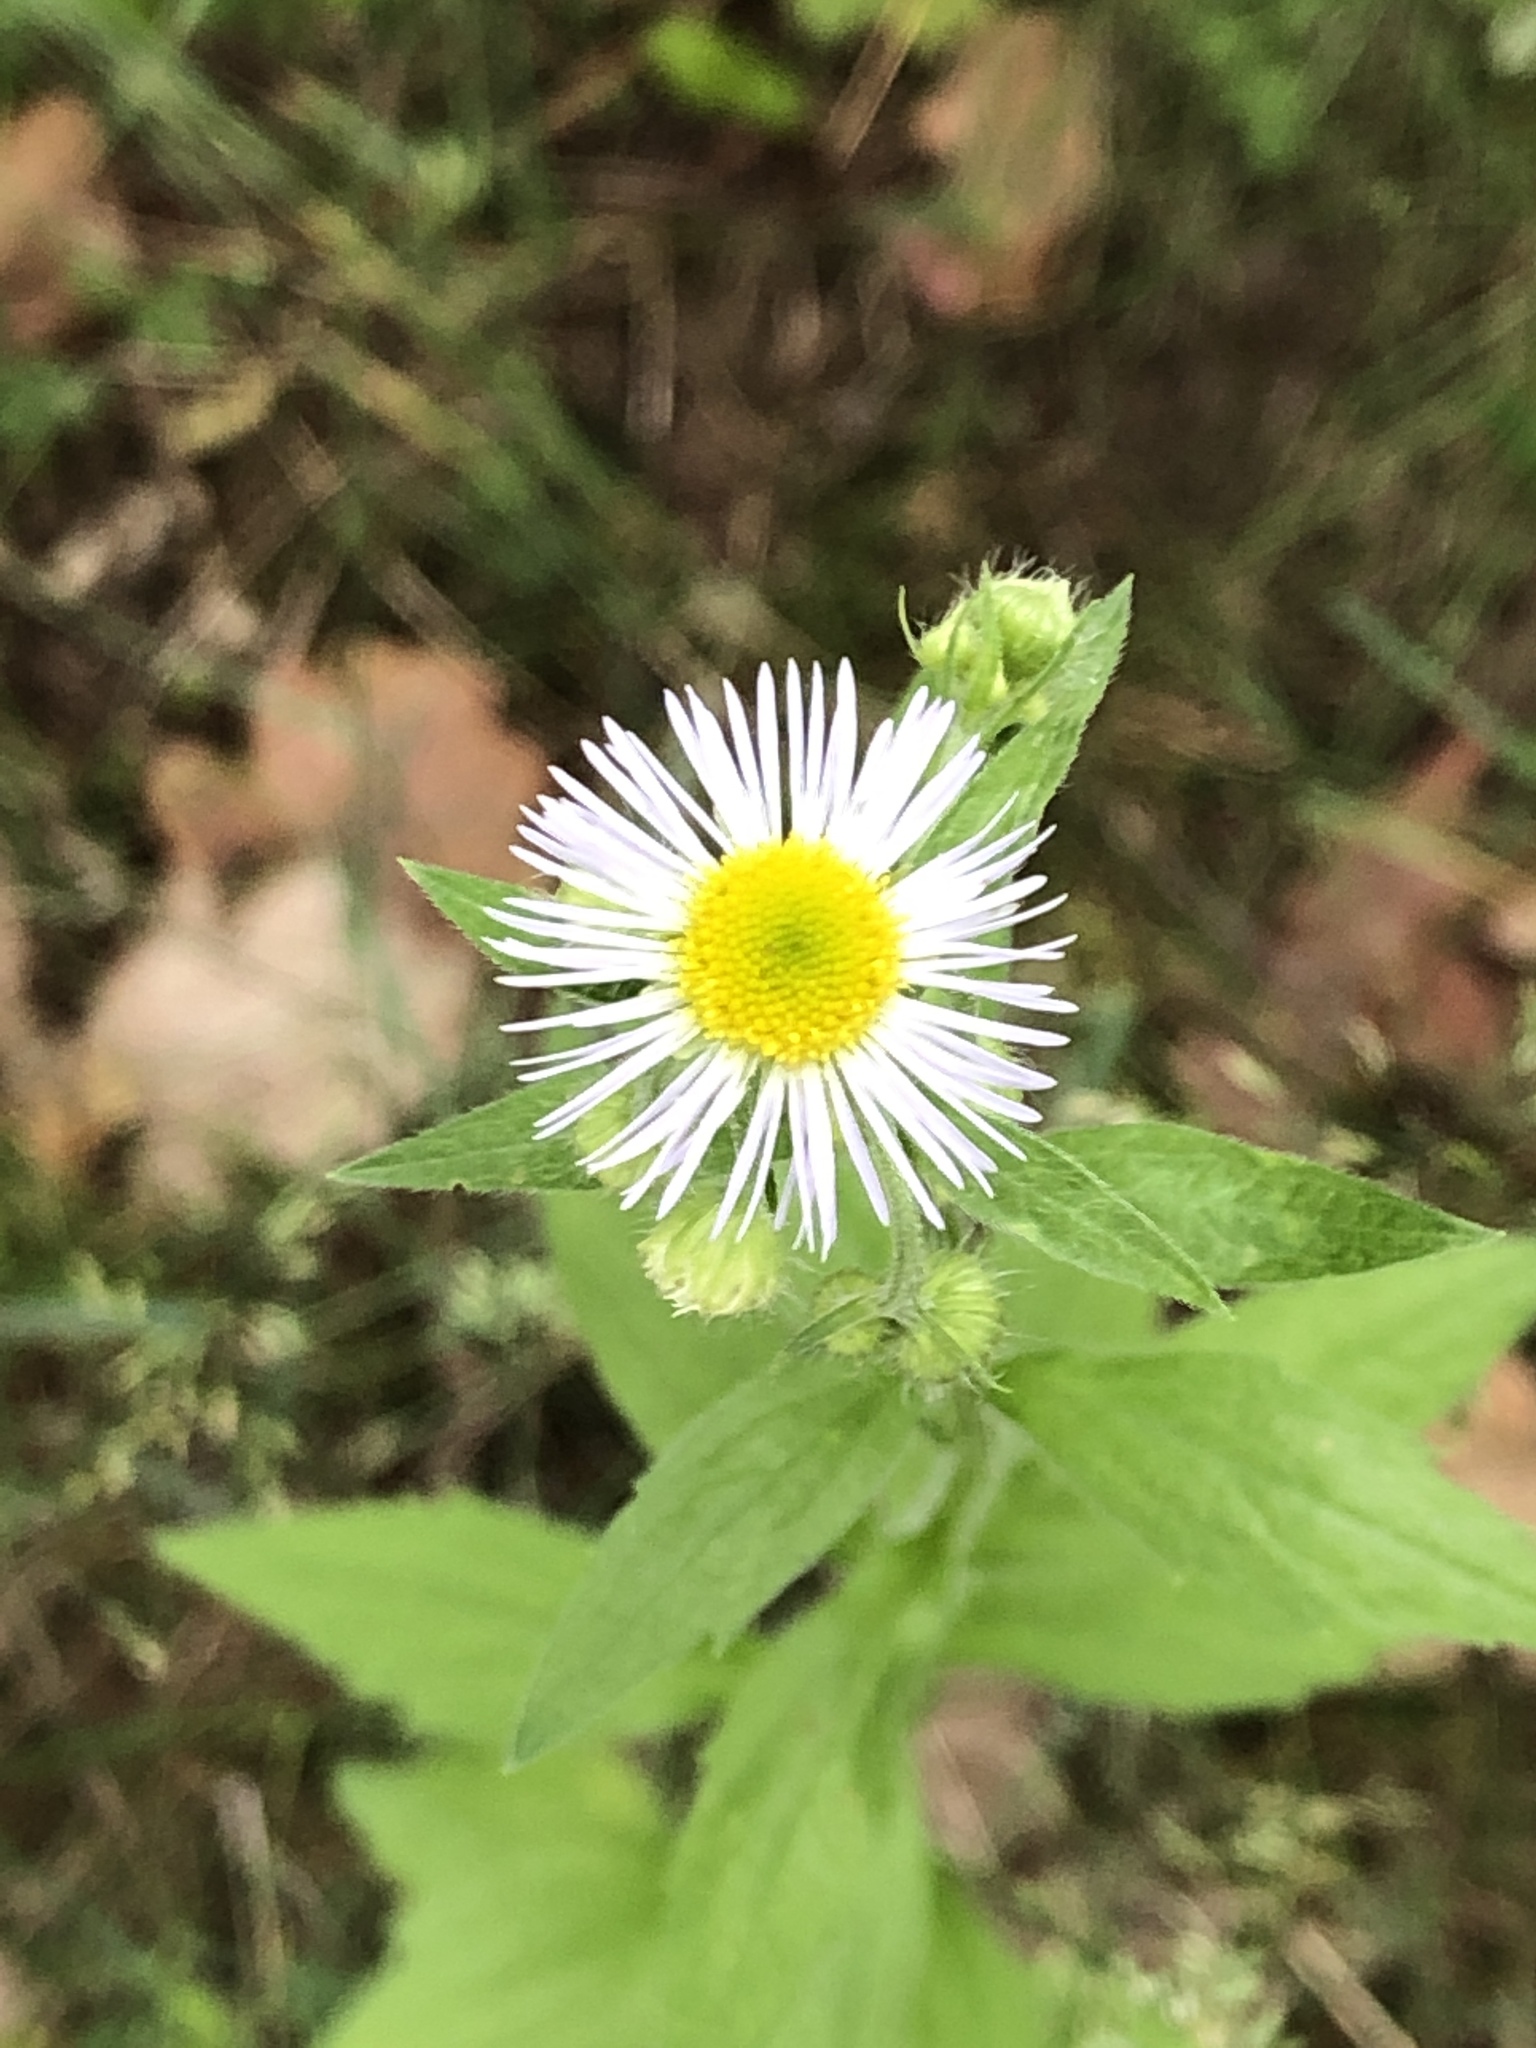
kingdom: Plantae
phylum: Tracheophyta
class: Magnoliopsida
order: Asterales
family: Asteraceae
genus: Erigeron
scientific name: Erigeron annuus
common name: Tall fleabane
